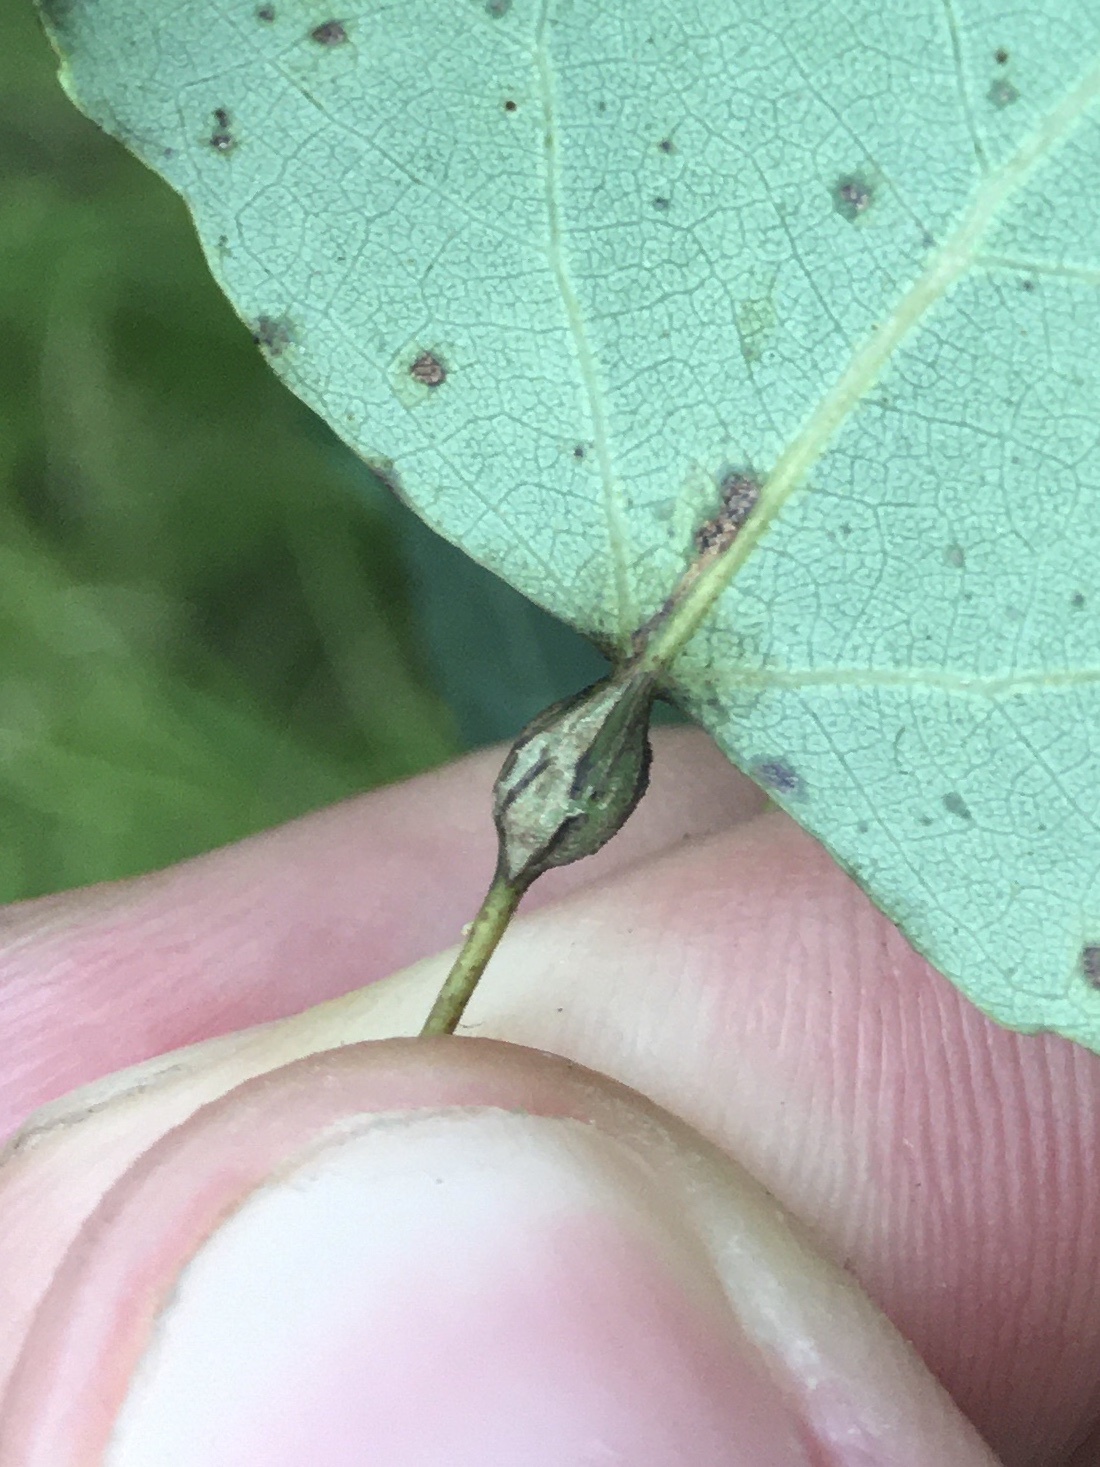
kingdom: Animalia
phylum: Arthropoda
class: Insecta
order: Lepidoptera
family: Nepticulidae
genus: Ectoedemia
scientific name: Ectoedemia populella
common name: Aspen petiole gall moth
